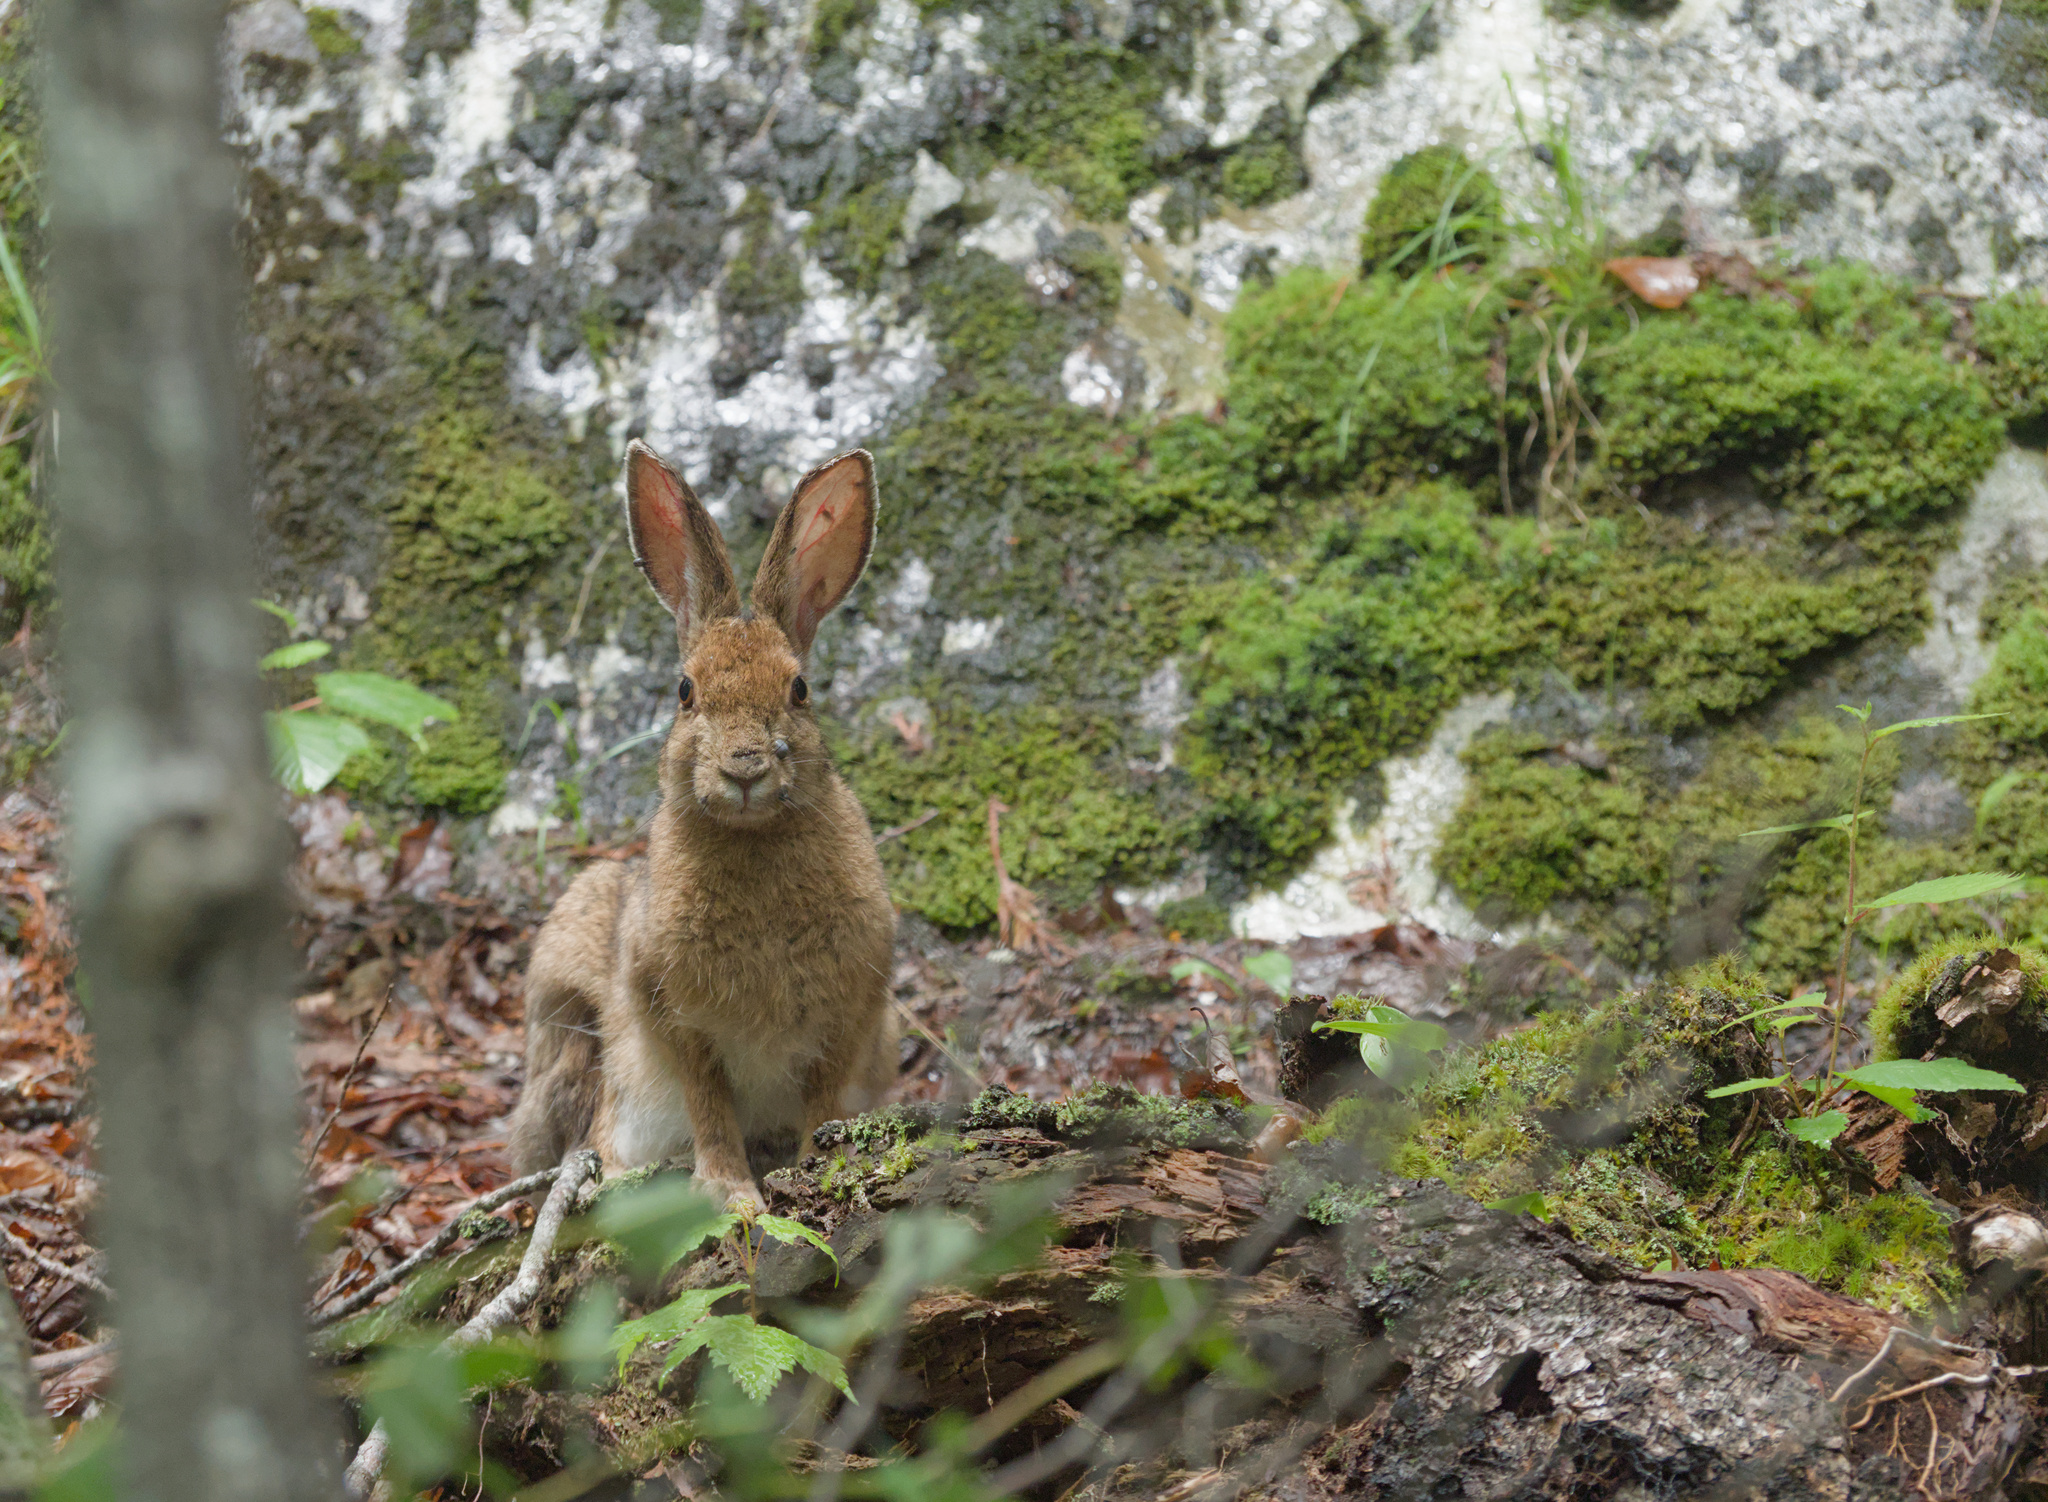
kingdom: Animalia
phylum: Chordata
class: Mammalia
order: Lagomorpha
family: Leporidae
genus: Lepus
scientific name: Lepus americanus
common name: Snowshoe hare
